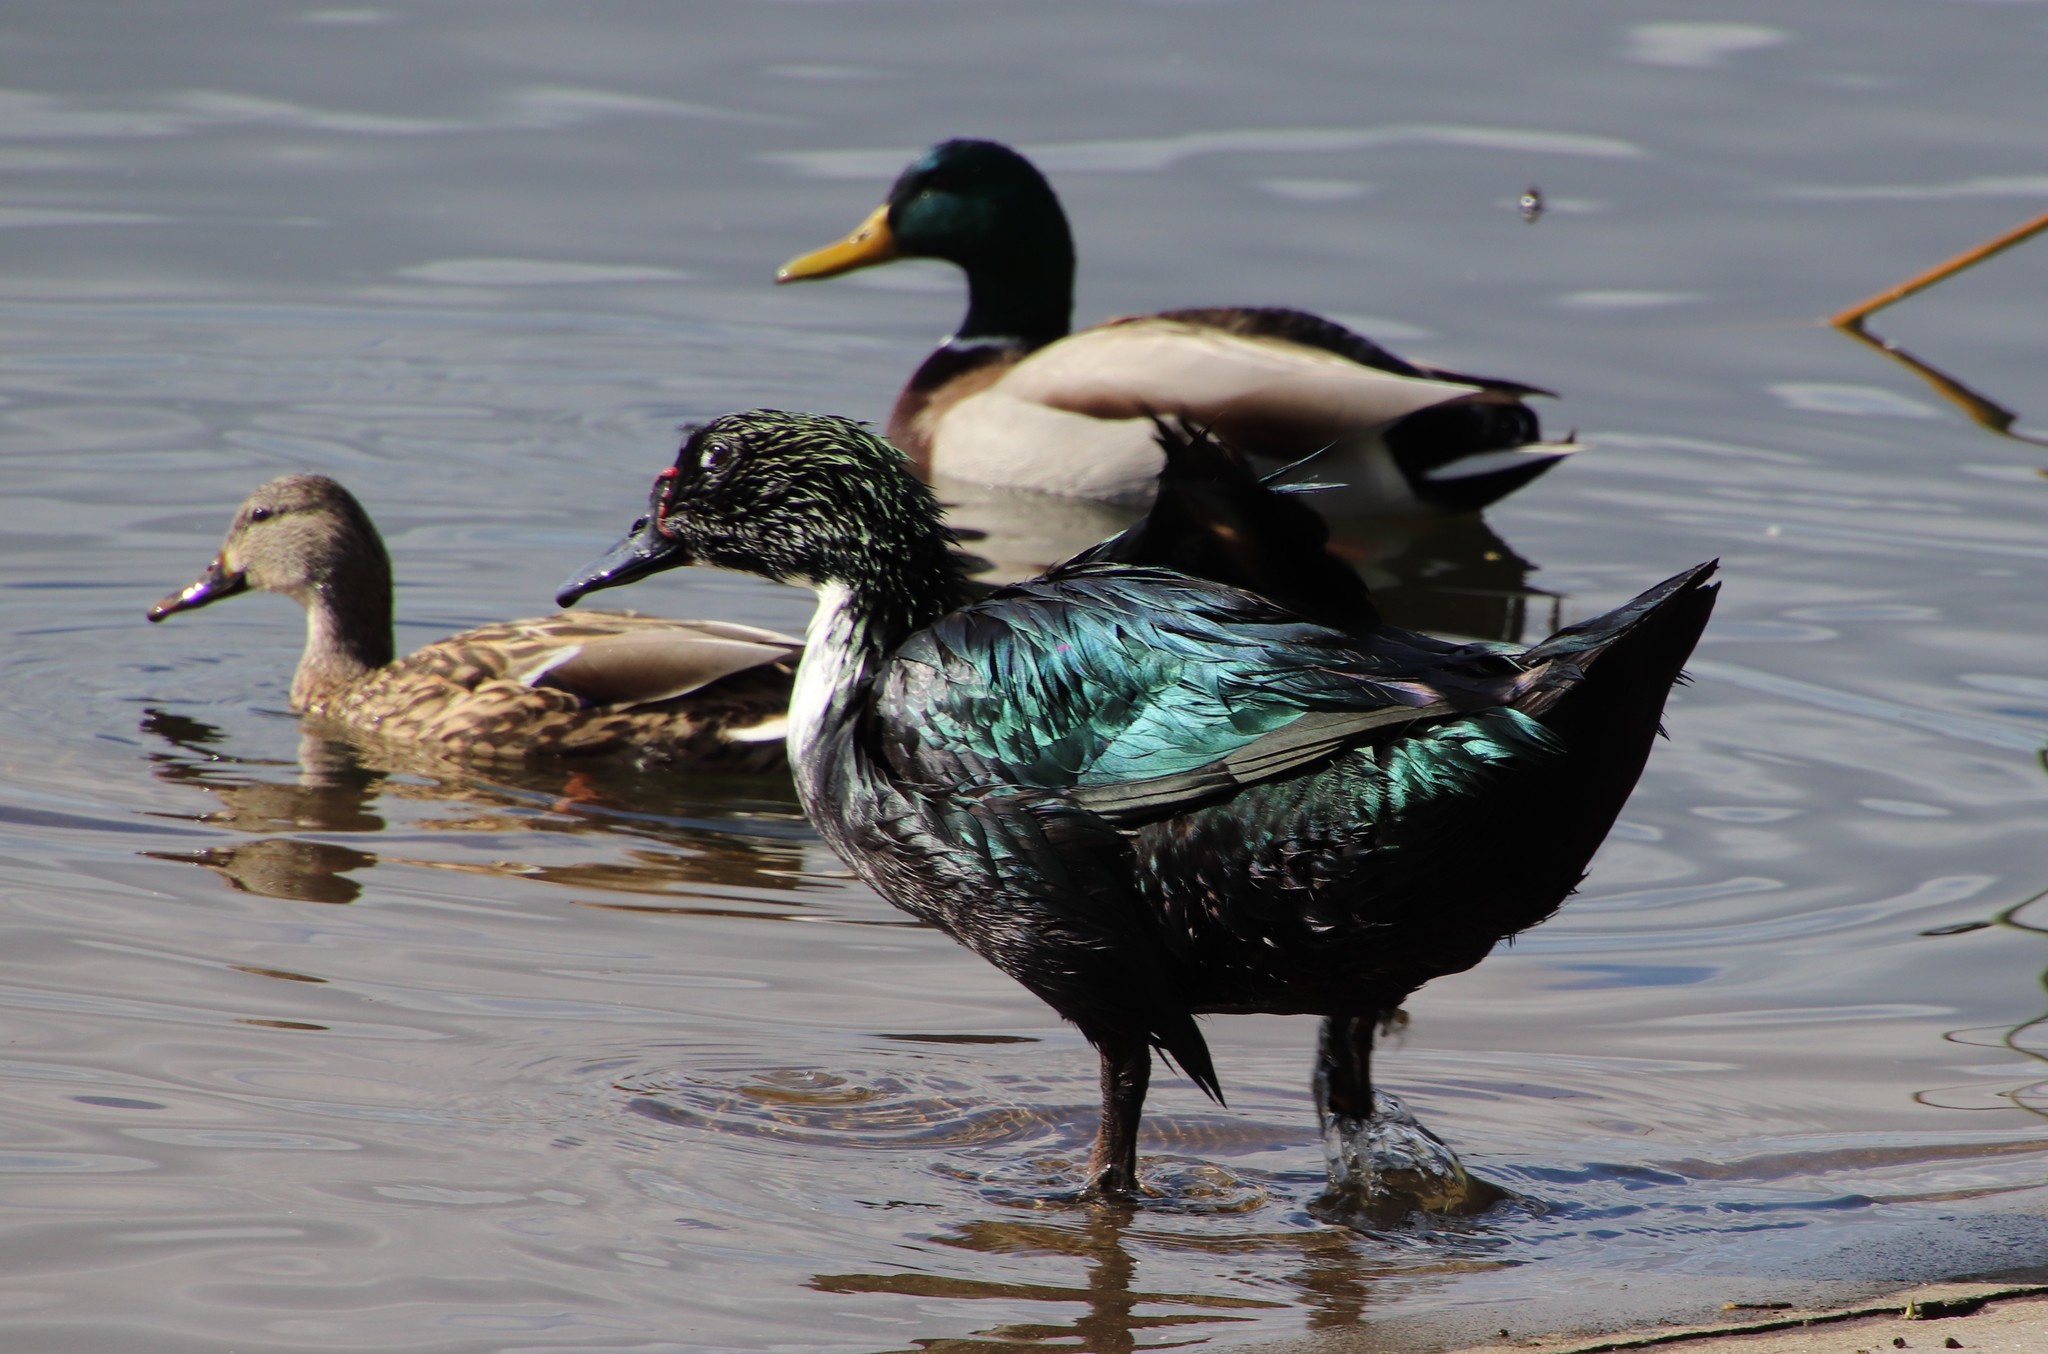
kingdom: Animalia
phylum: Chordata
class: Aves
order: Anseriformes
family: Anatidae
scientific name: Anatidae
